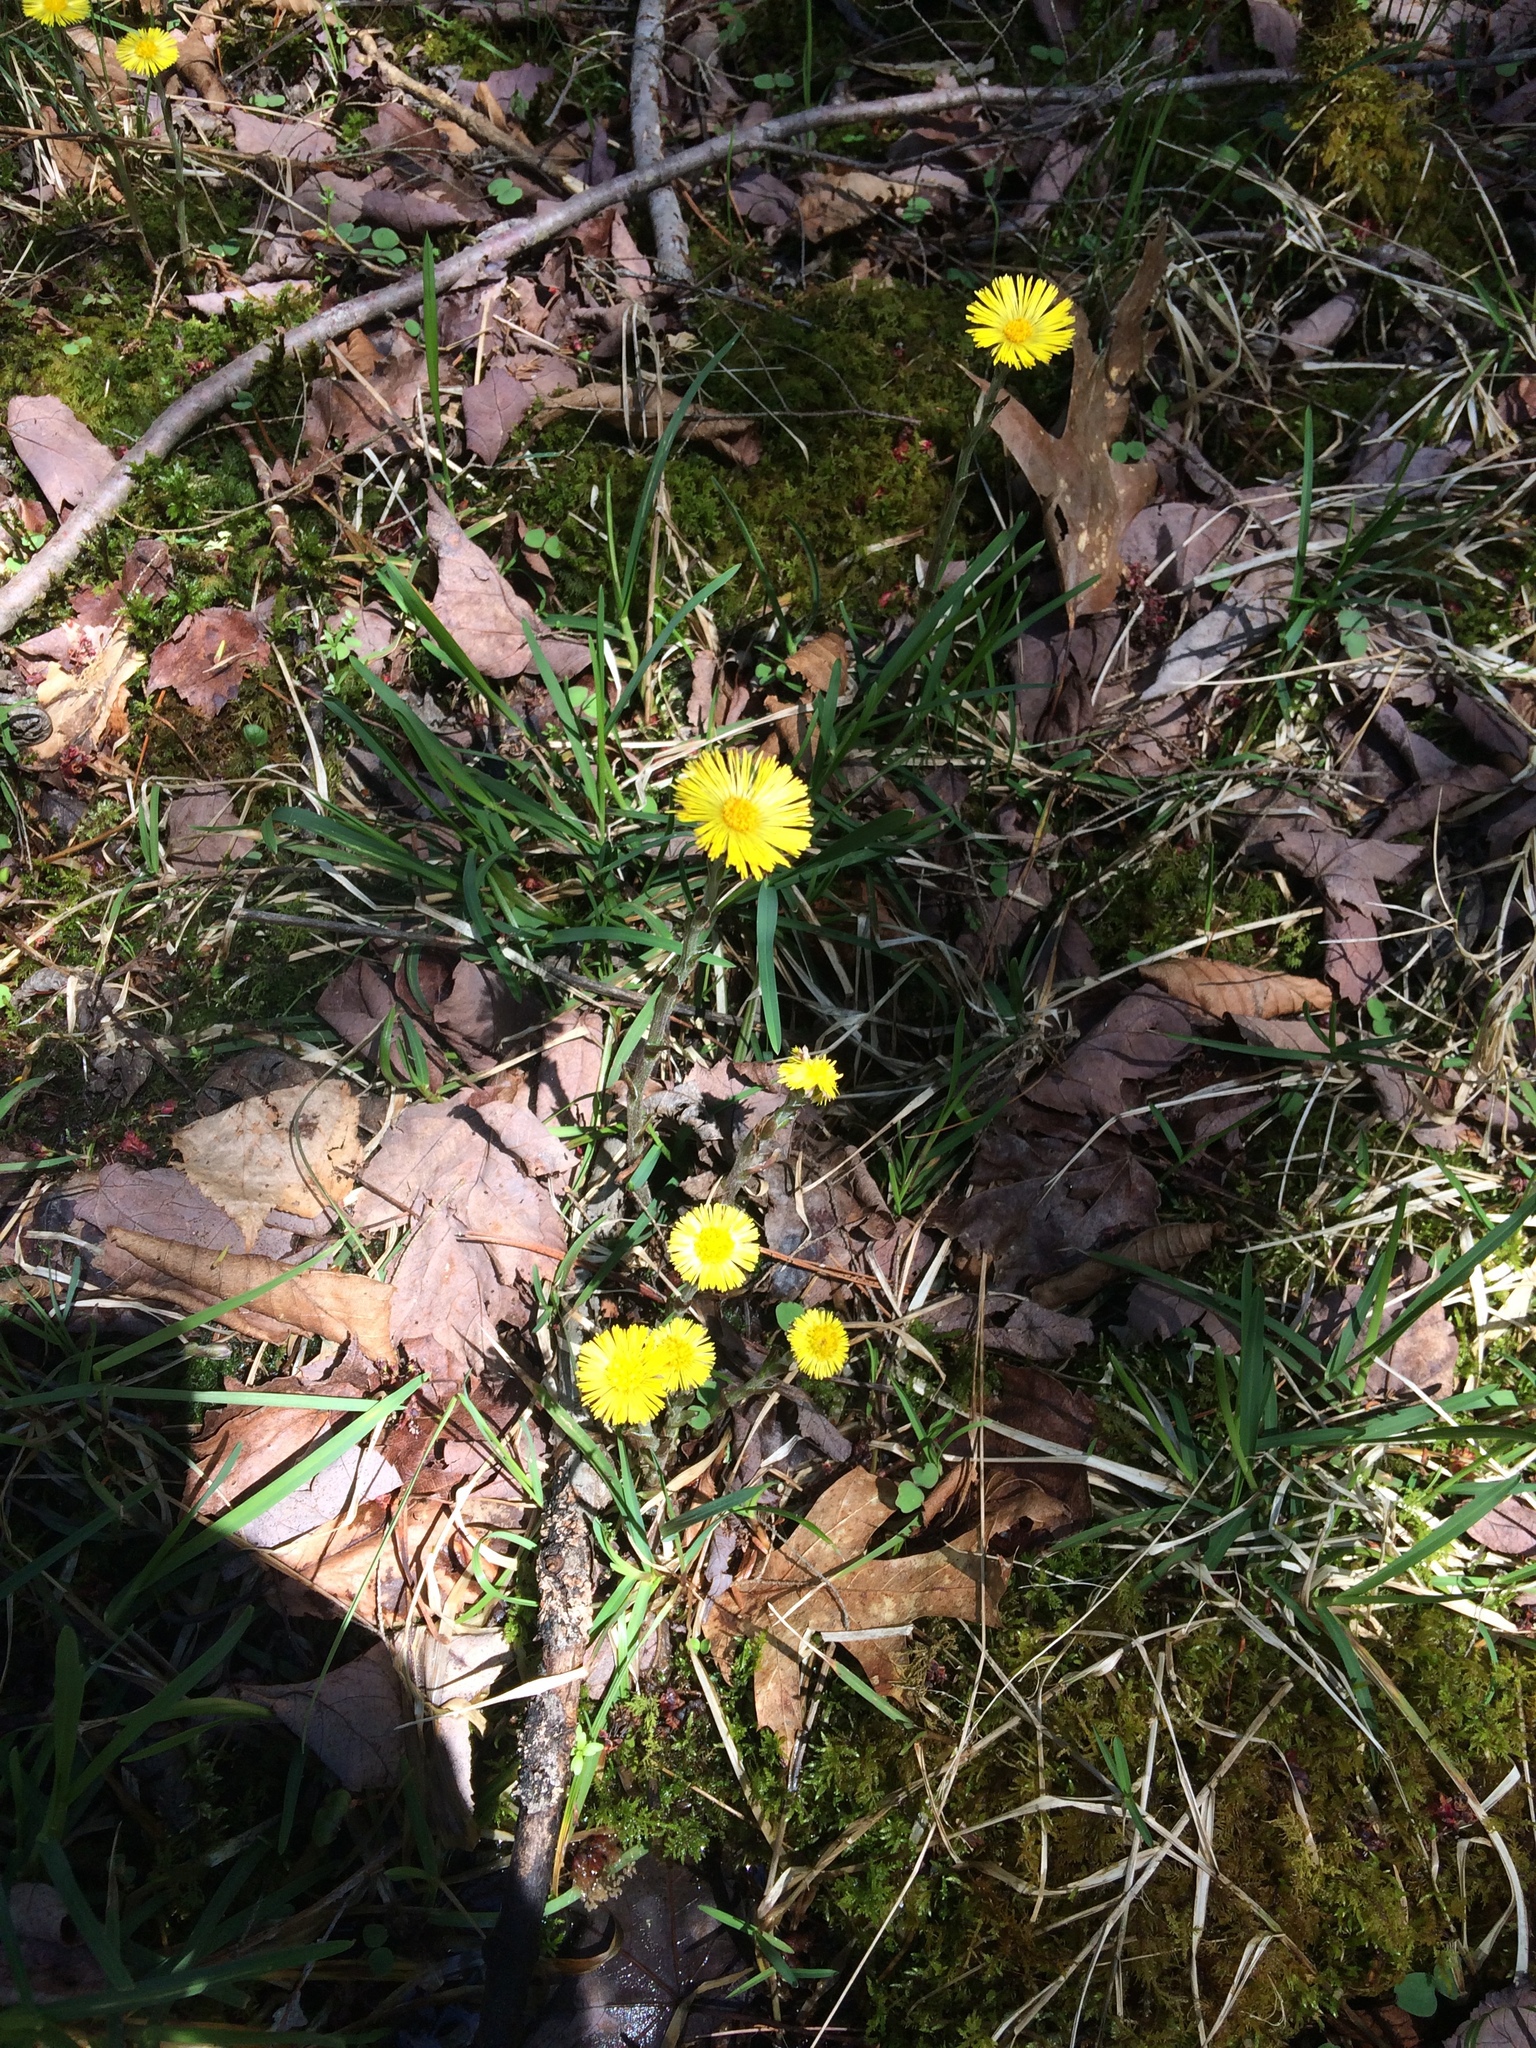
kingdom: Plantae
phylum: Tracheophyta
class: Magnoliopsida
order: Asterales
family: Asteraceae
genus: Tussilago
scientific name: Tussilago farfara
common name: Coltsfoot
